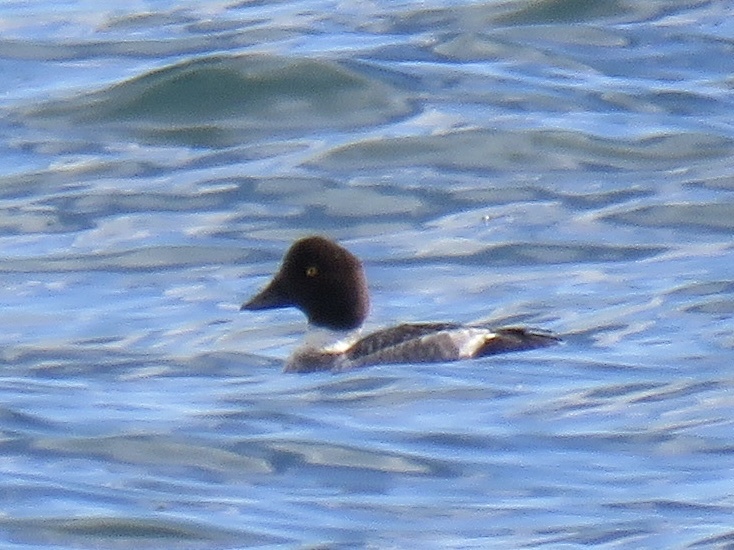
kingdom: Animalia
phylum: Chordata
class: Aves
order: Anseriformes
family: Anatidae
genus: Bucephala
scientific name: Bucephala clangula
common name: Common goldeneye
